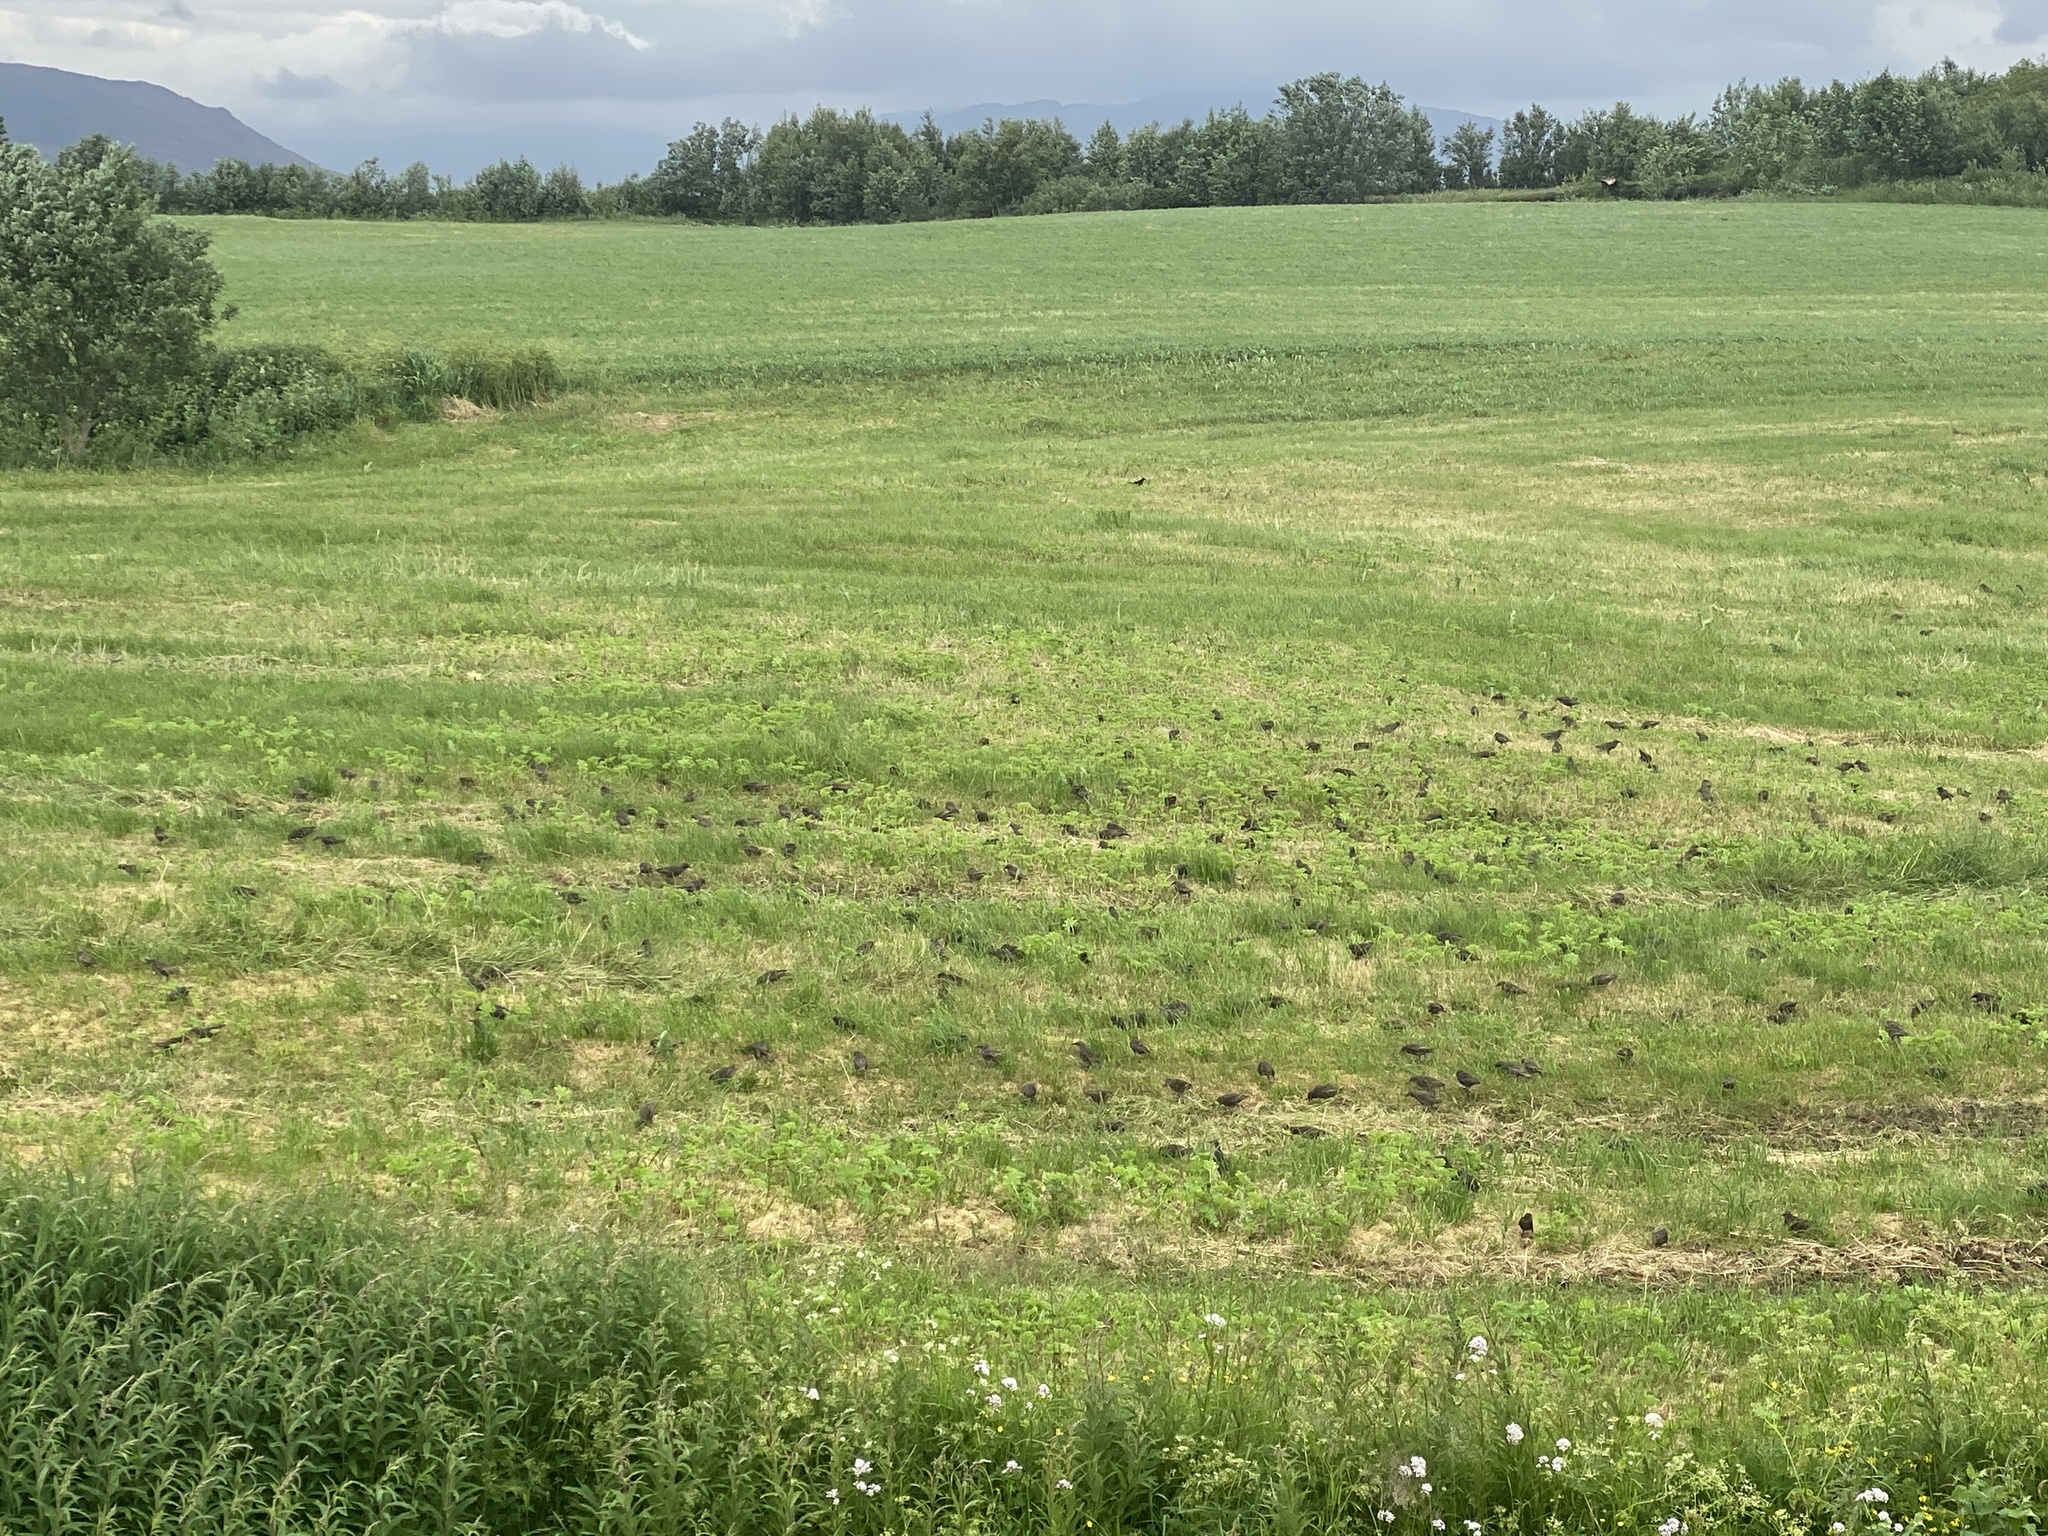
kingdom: Animalia
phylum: Chordata
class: Aves
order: Passeriformes
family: Sturnidae
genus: Sturnus
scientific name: Sturnus vulgaris
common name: Common starling
